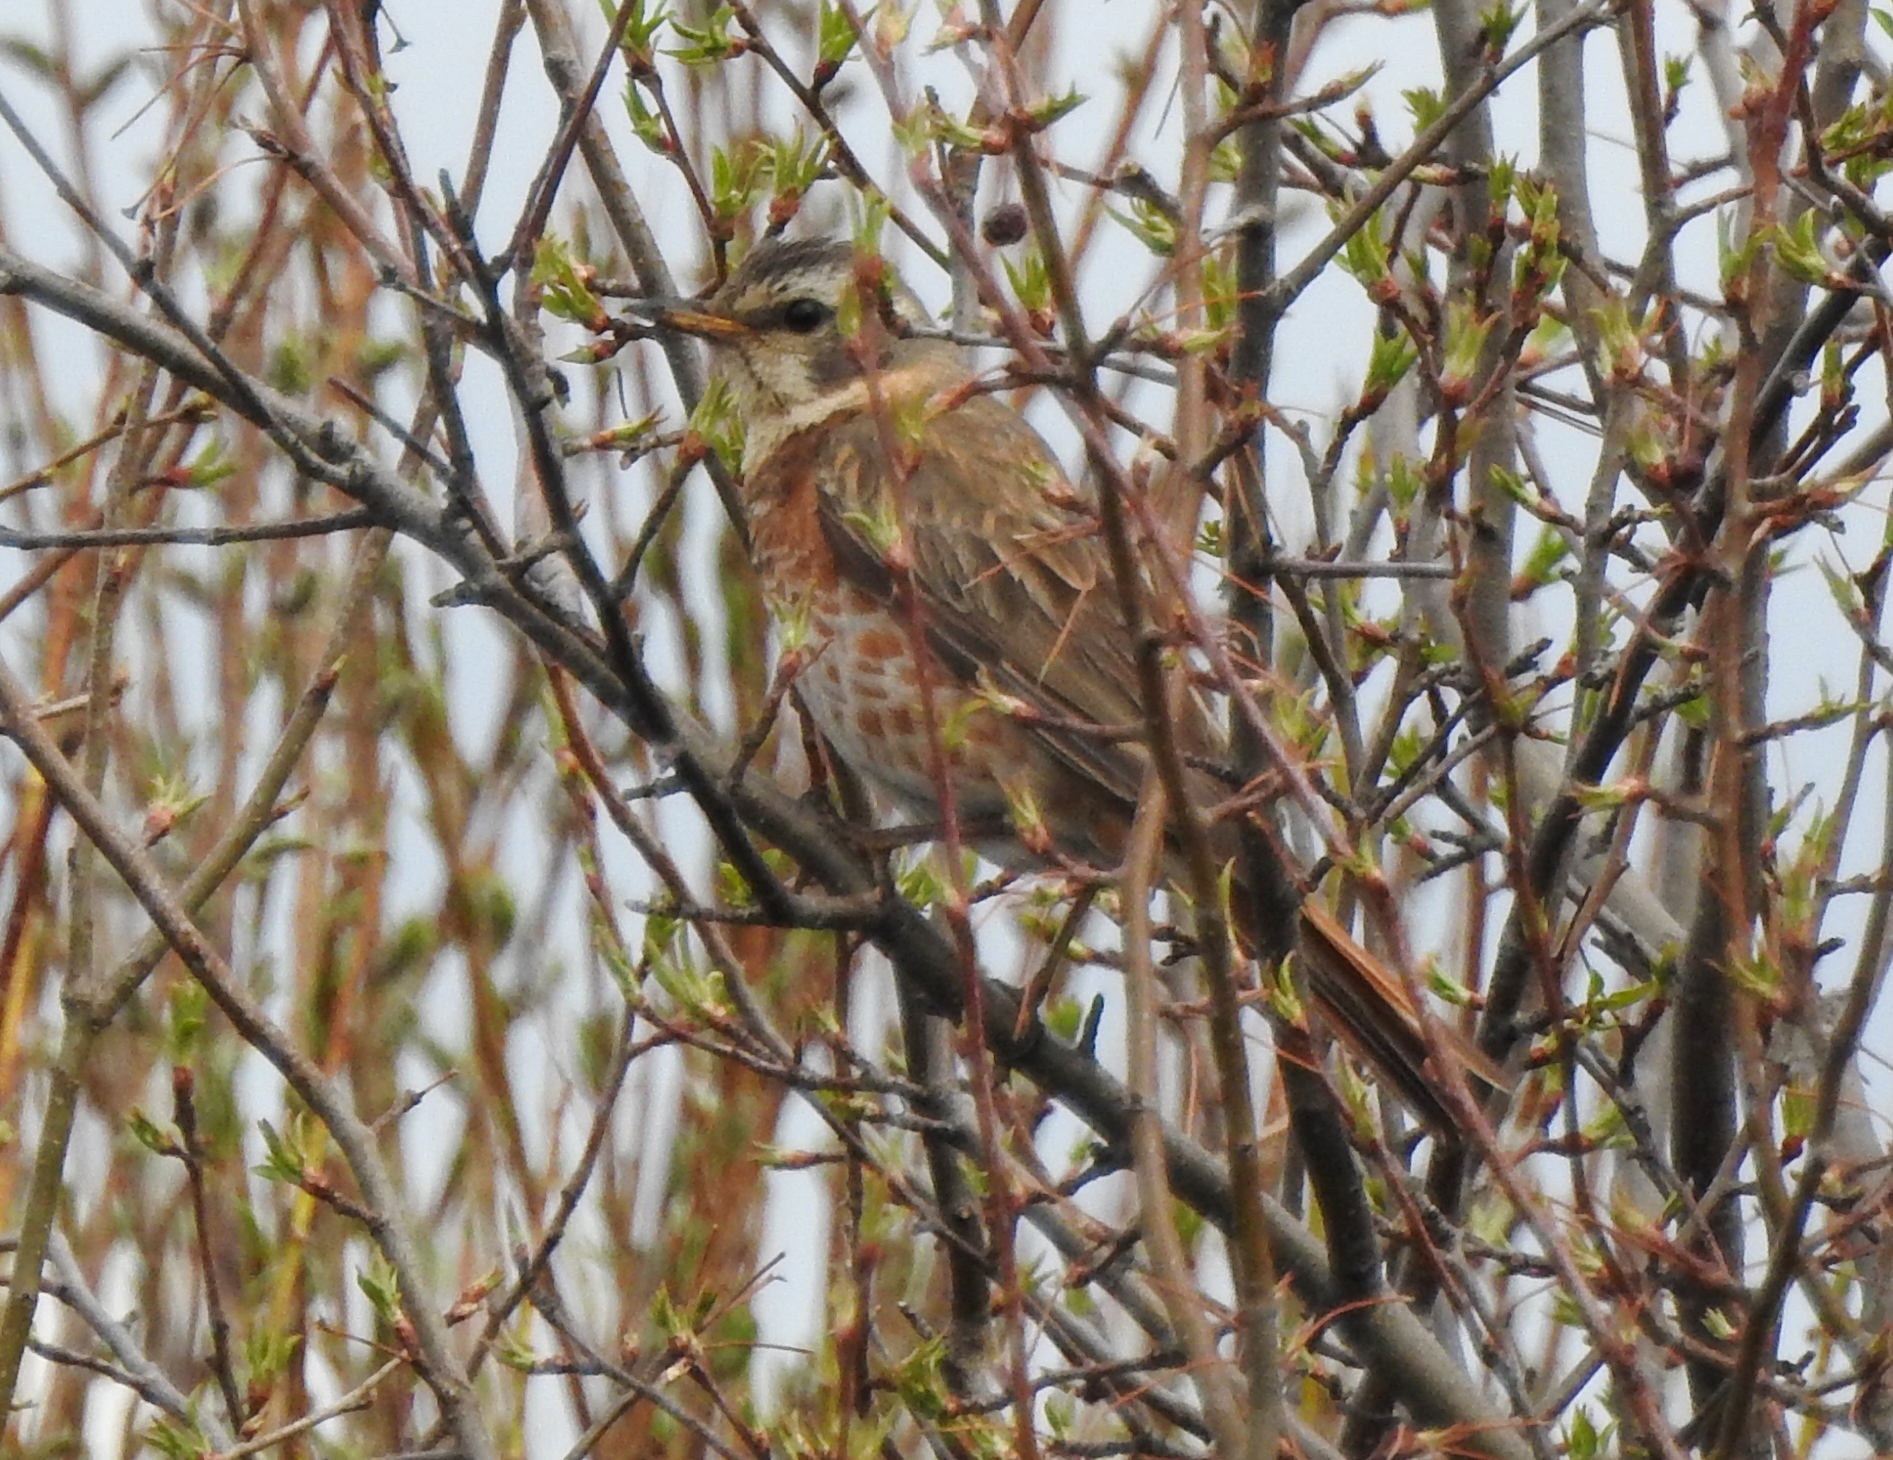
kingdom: Animalia
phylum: Chordata
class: Aves
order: Passeriformes
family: Turdidae
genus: Turdus
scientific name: Turdus naumanni
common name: Naumann's thrush
